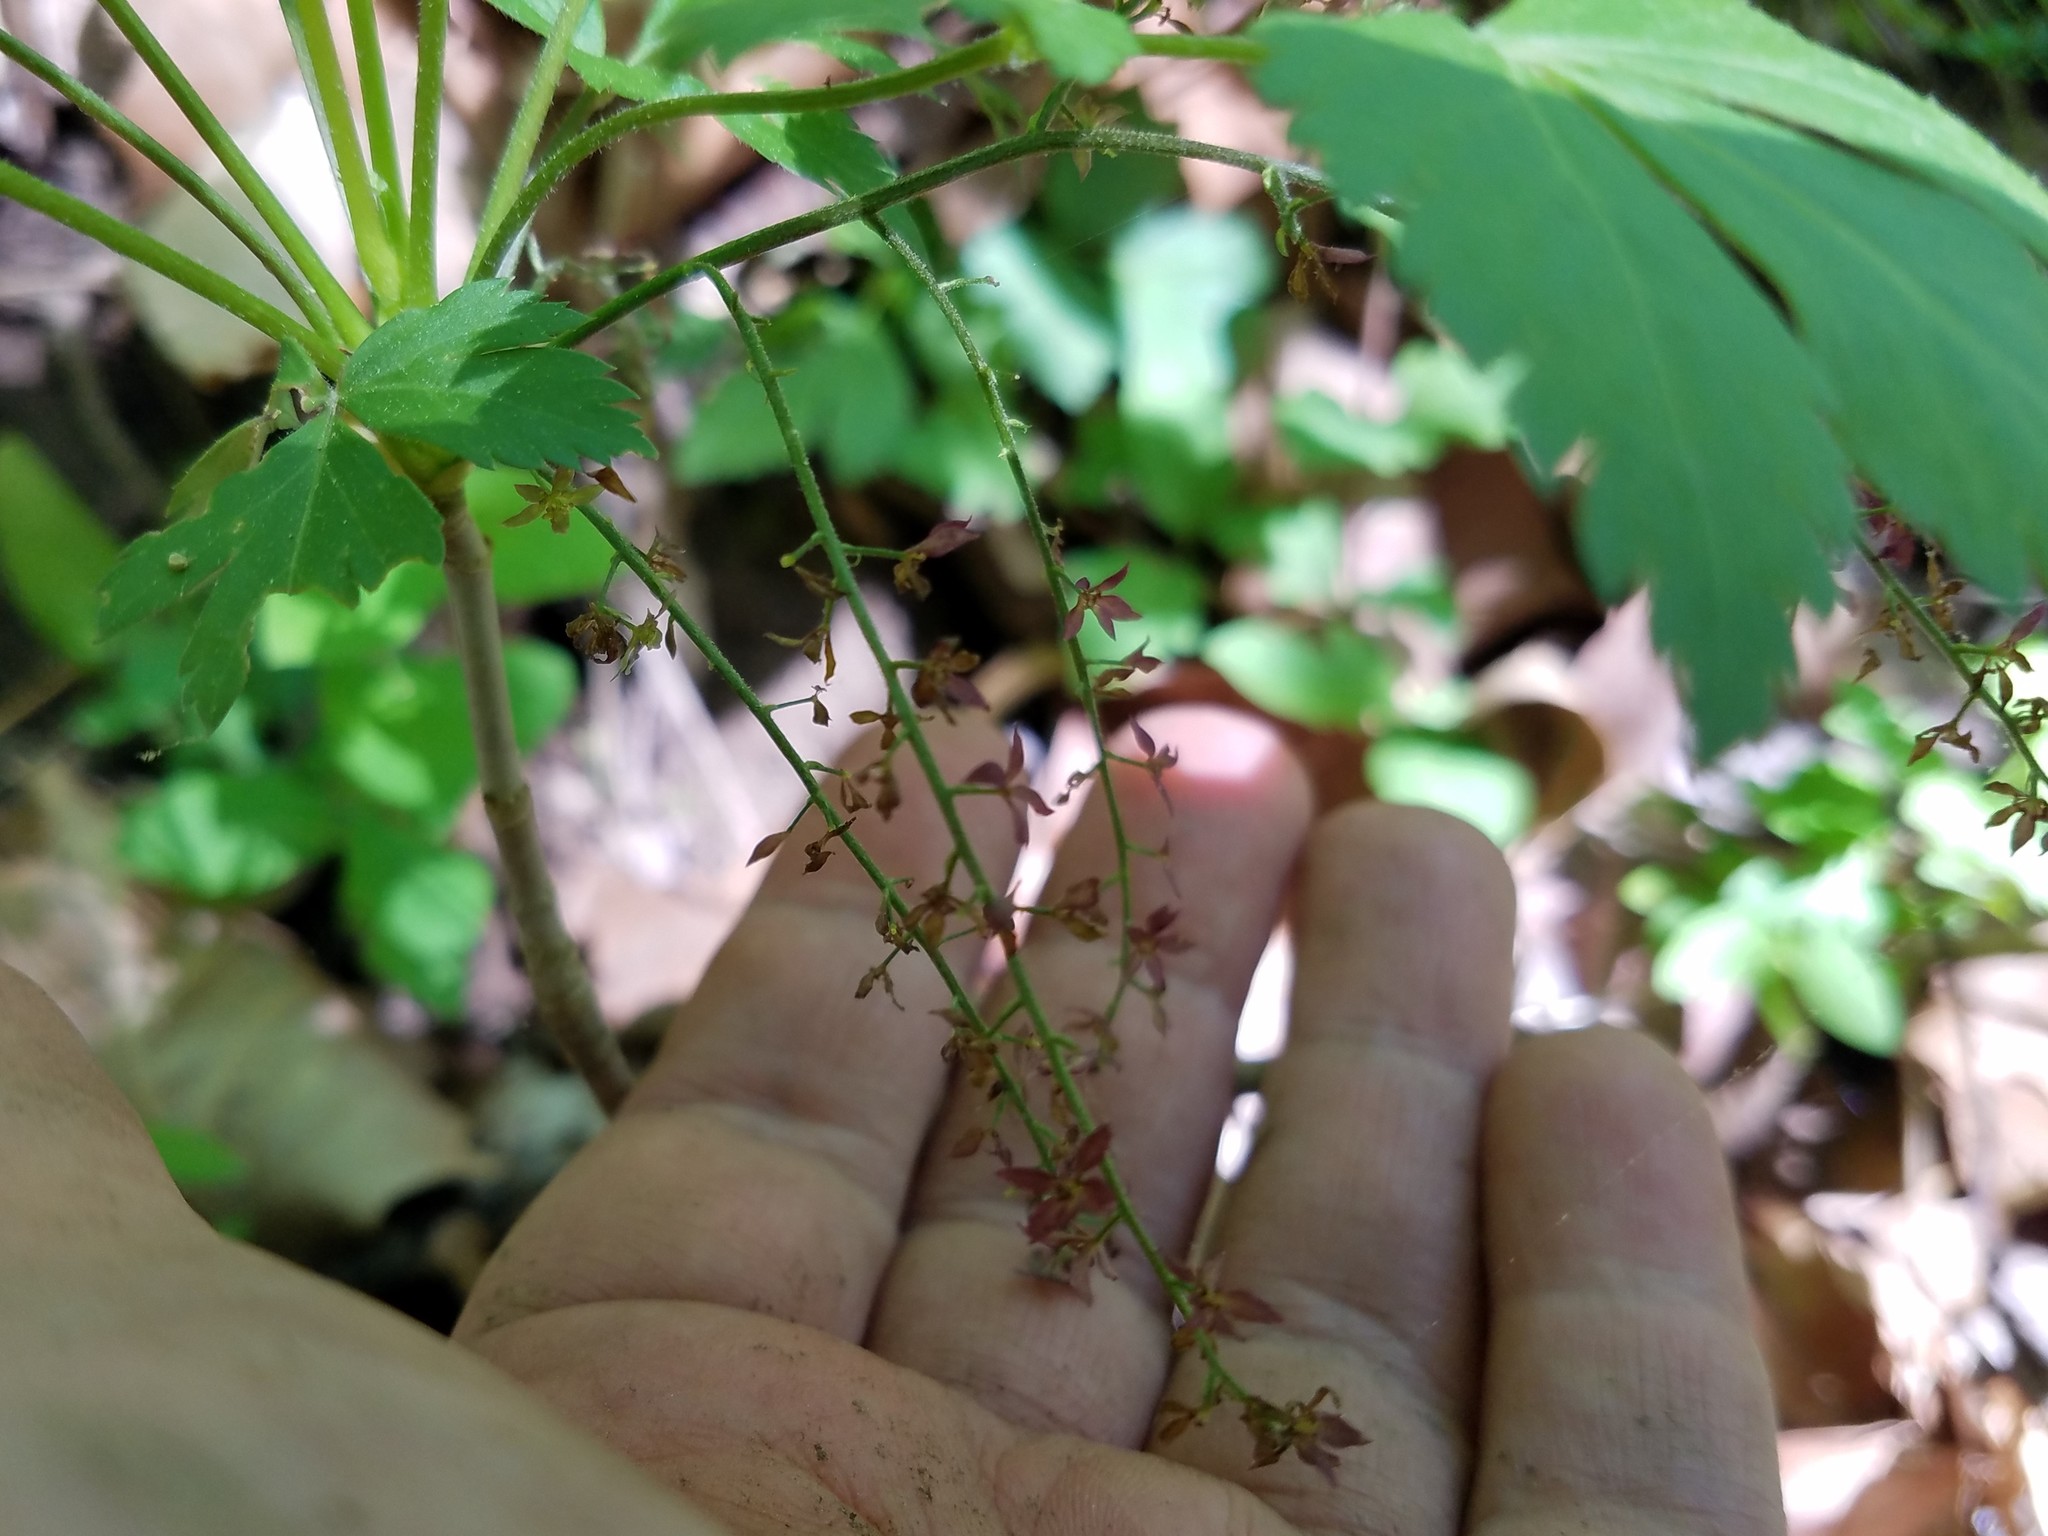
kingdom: Plantae
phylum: Tracheophyta
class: Magnoliopsida
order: Ranunculales
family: Ranunculaceae
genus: Xanthorhiza
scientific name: Xanthorhiza simplicissima
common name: Yellowroot
